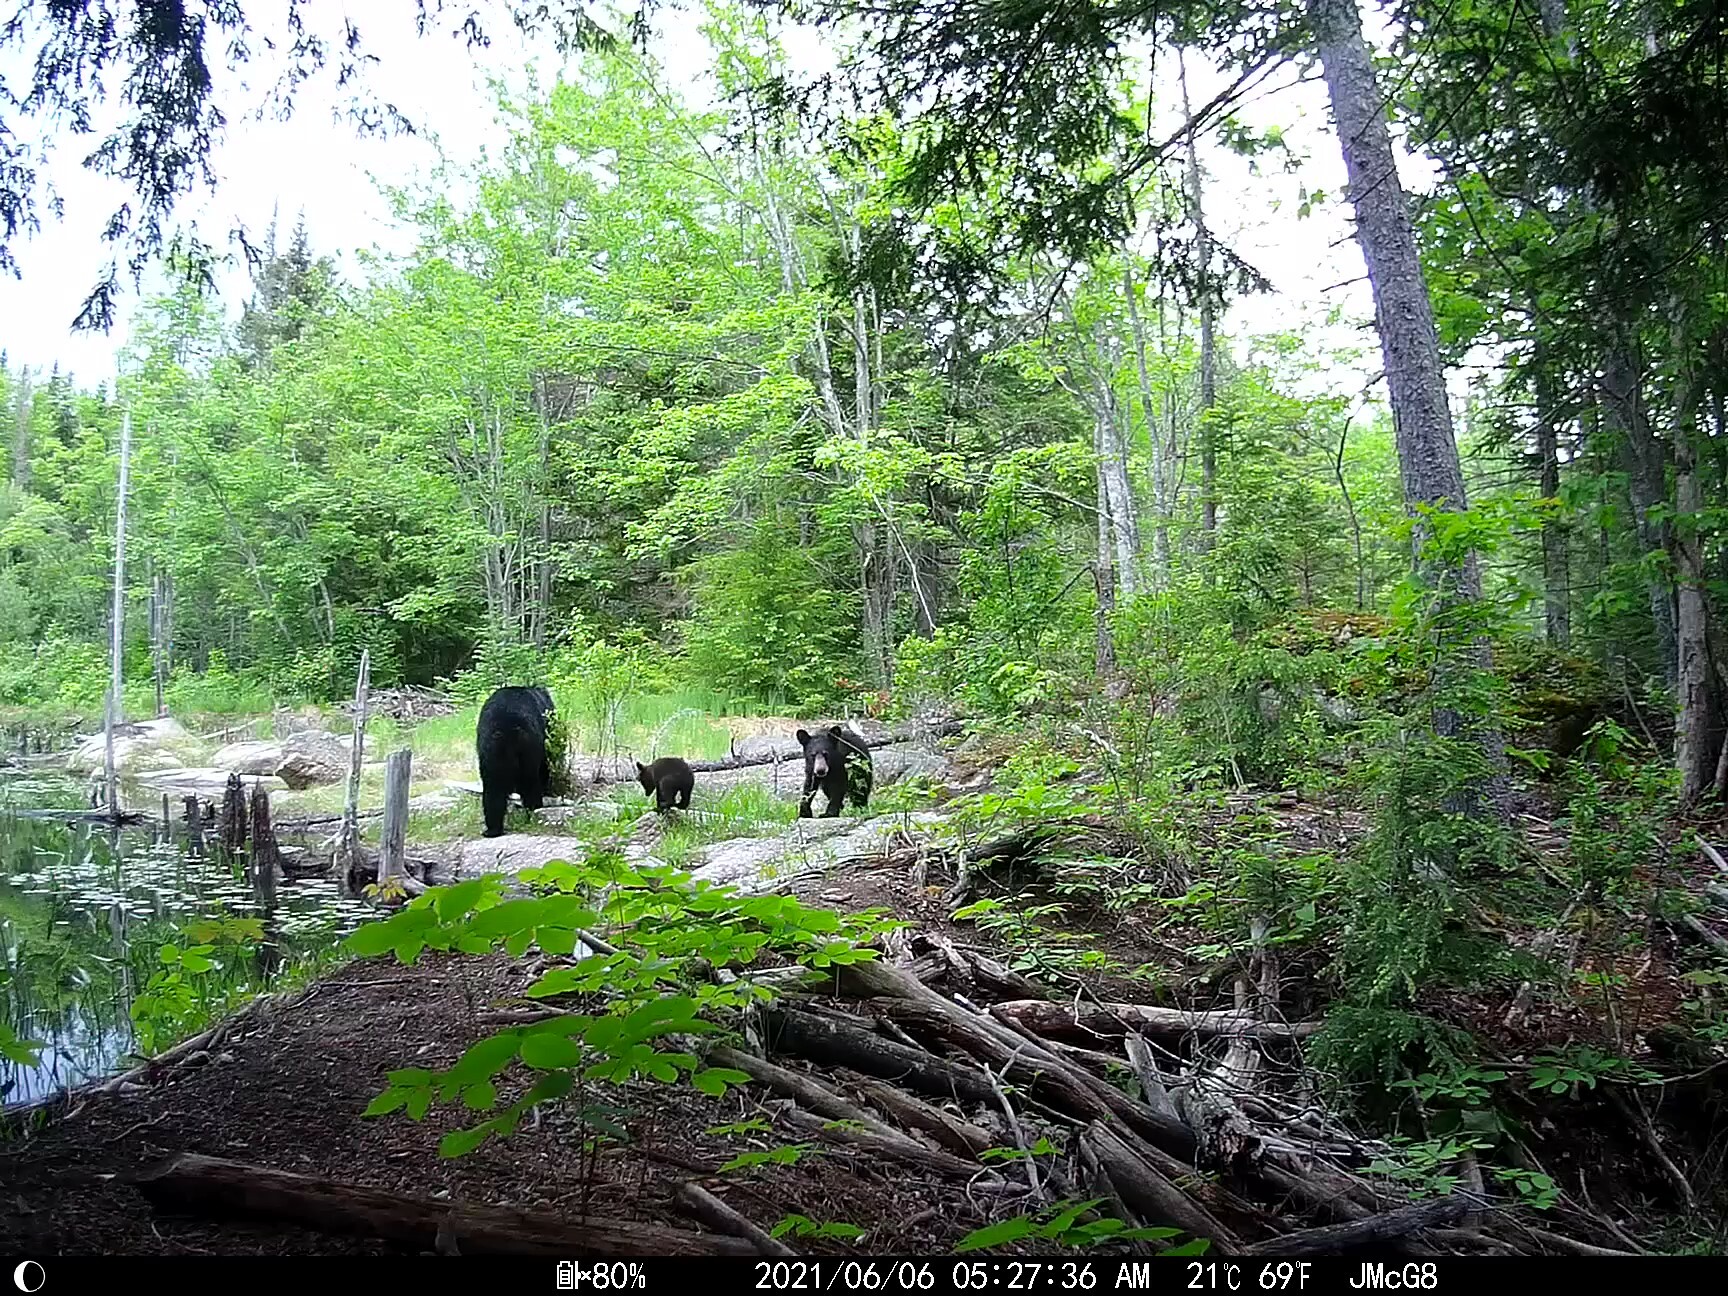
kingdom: Animalia
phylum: Chordata
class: Mammalia
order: Carnivora
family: Ursidae
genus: Ursus
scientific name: Ursus americanus
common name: American black bear
